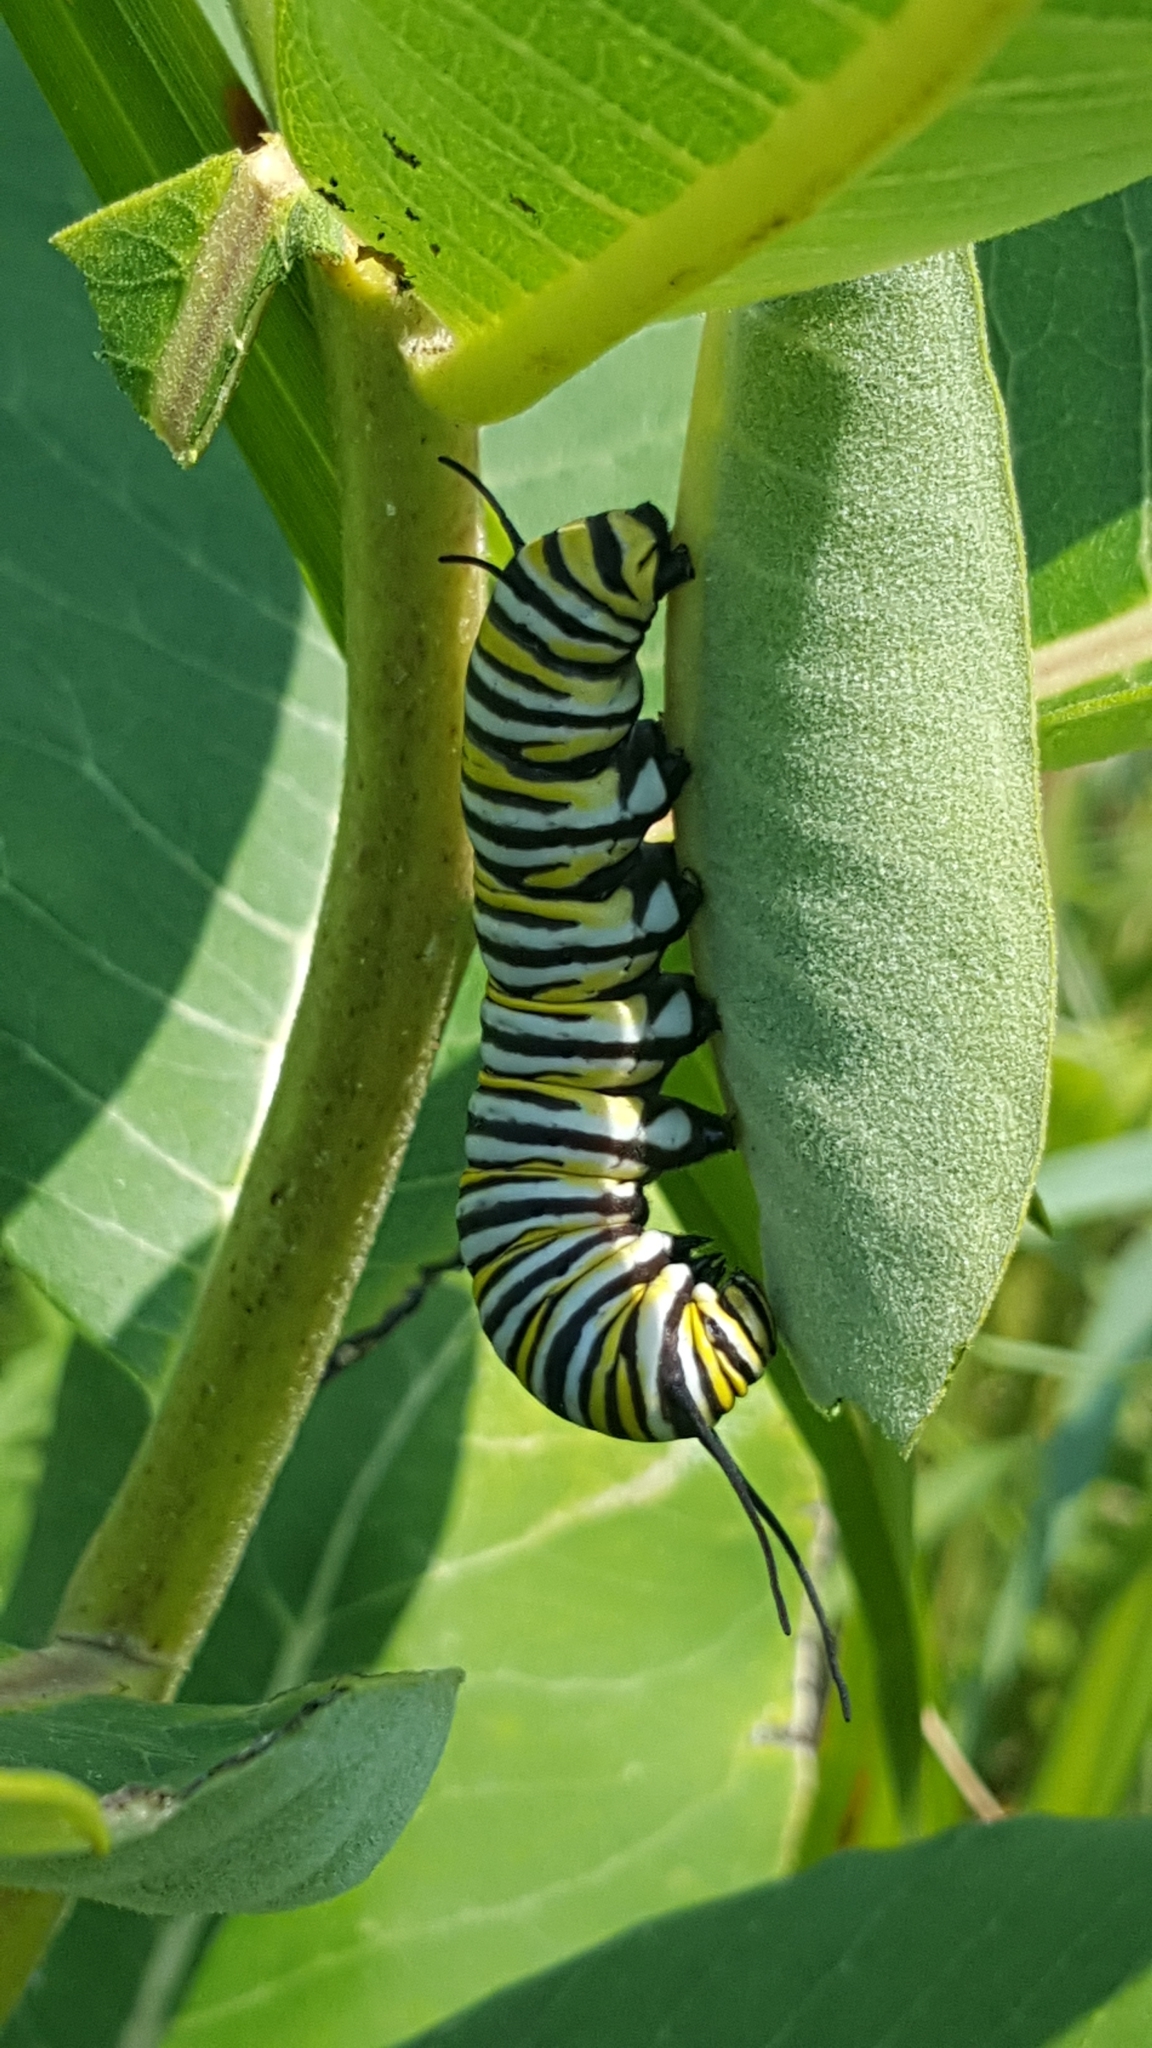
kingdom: Animalia
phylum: Arthropoda
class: Insecta
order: Lepidoptera
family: Nymphalidae
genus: Danaus
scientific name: Danaus plexippus
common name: Monarch
